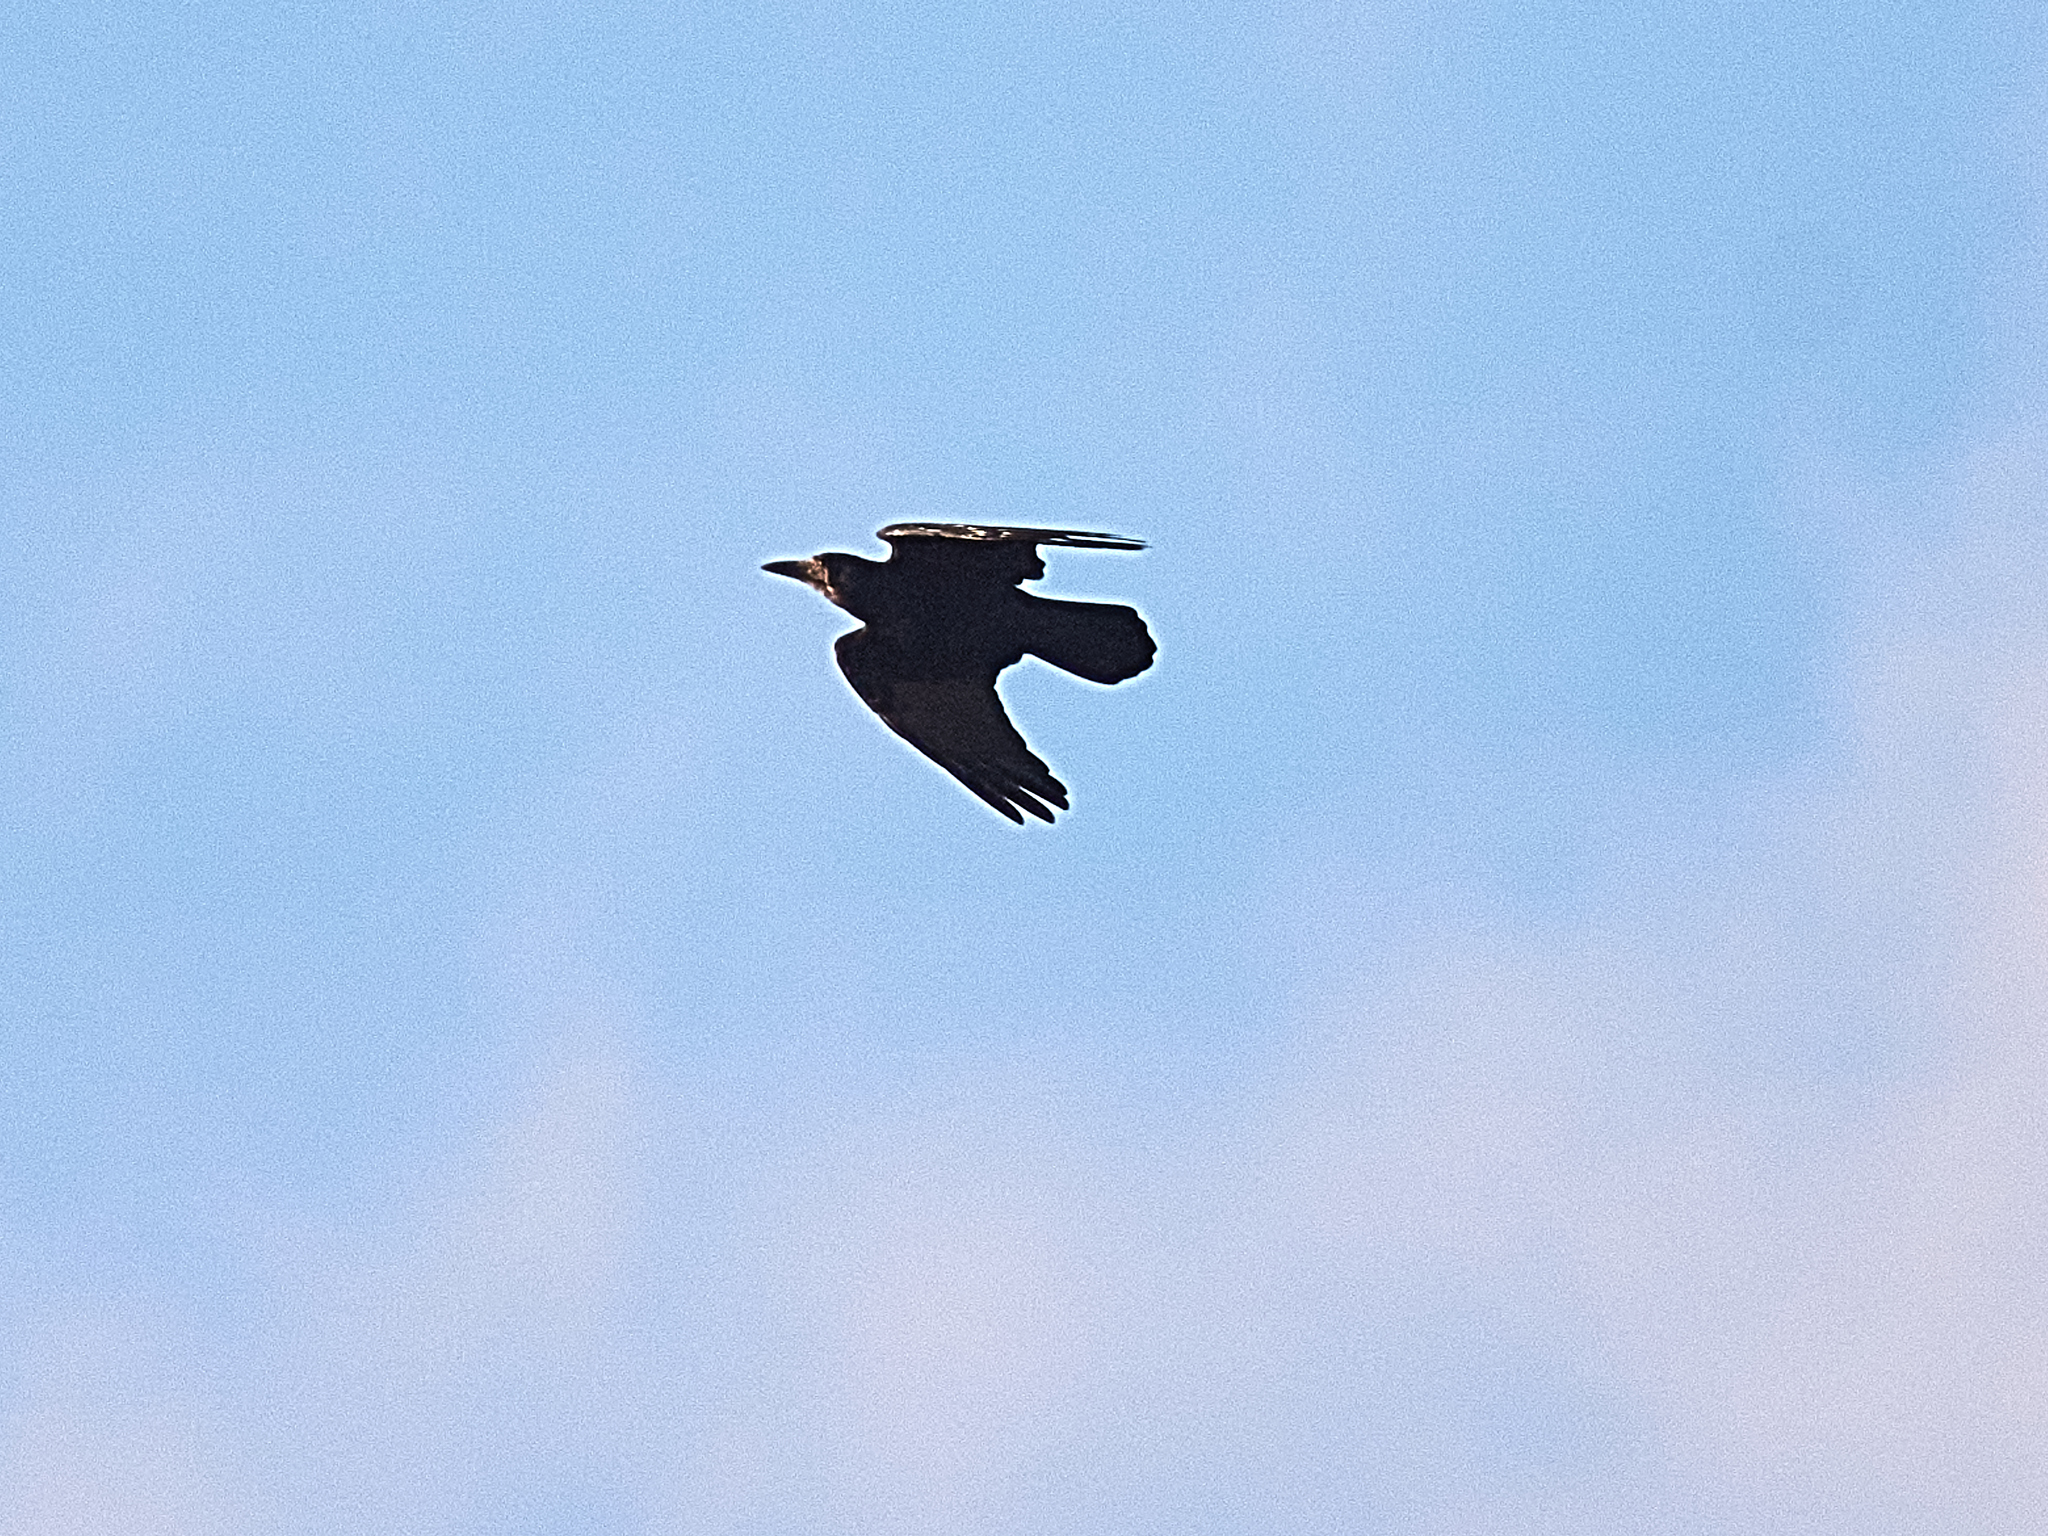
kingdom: Animalia
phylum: Chordata
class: Aves
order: Passeriformes
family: Corvidae
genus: Corvus
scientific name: Corvus frugilegus
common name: Rook
